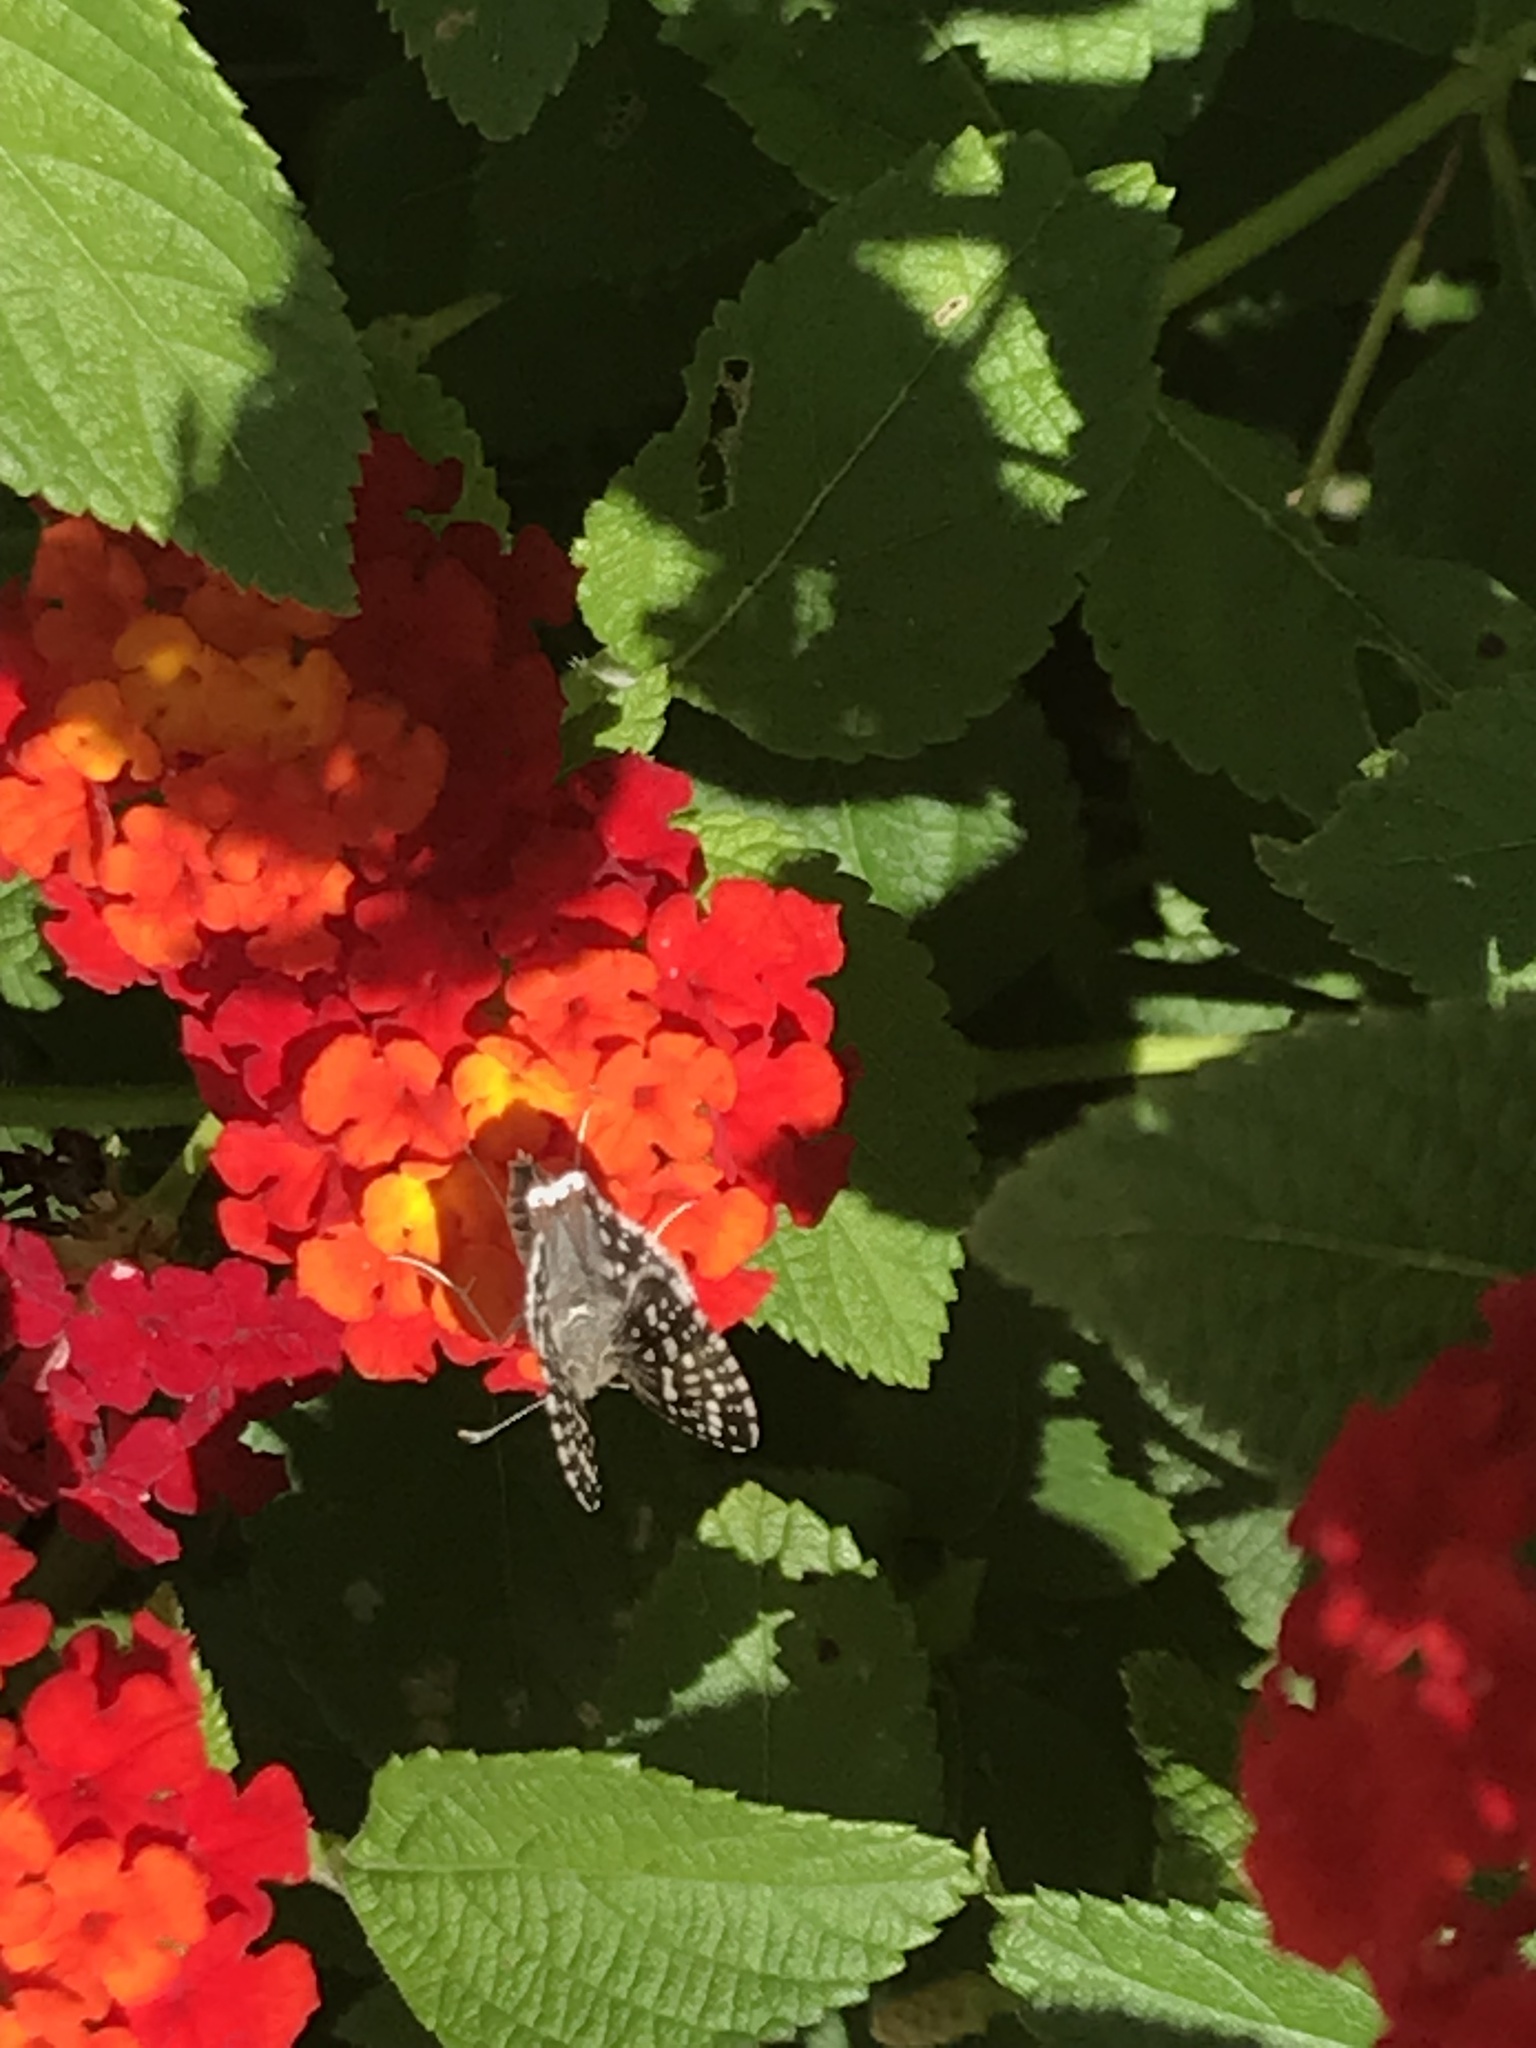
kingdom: Animalia
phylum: Arthropoda
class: Insecta
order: Lepidoptera
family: Hesperiidae
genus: Burnsius
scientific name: Burnsius communis
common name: Common checkered-skipper
